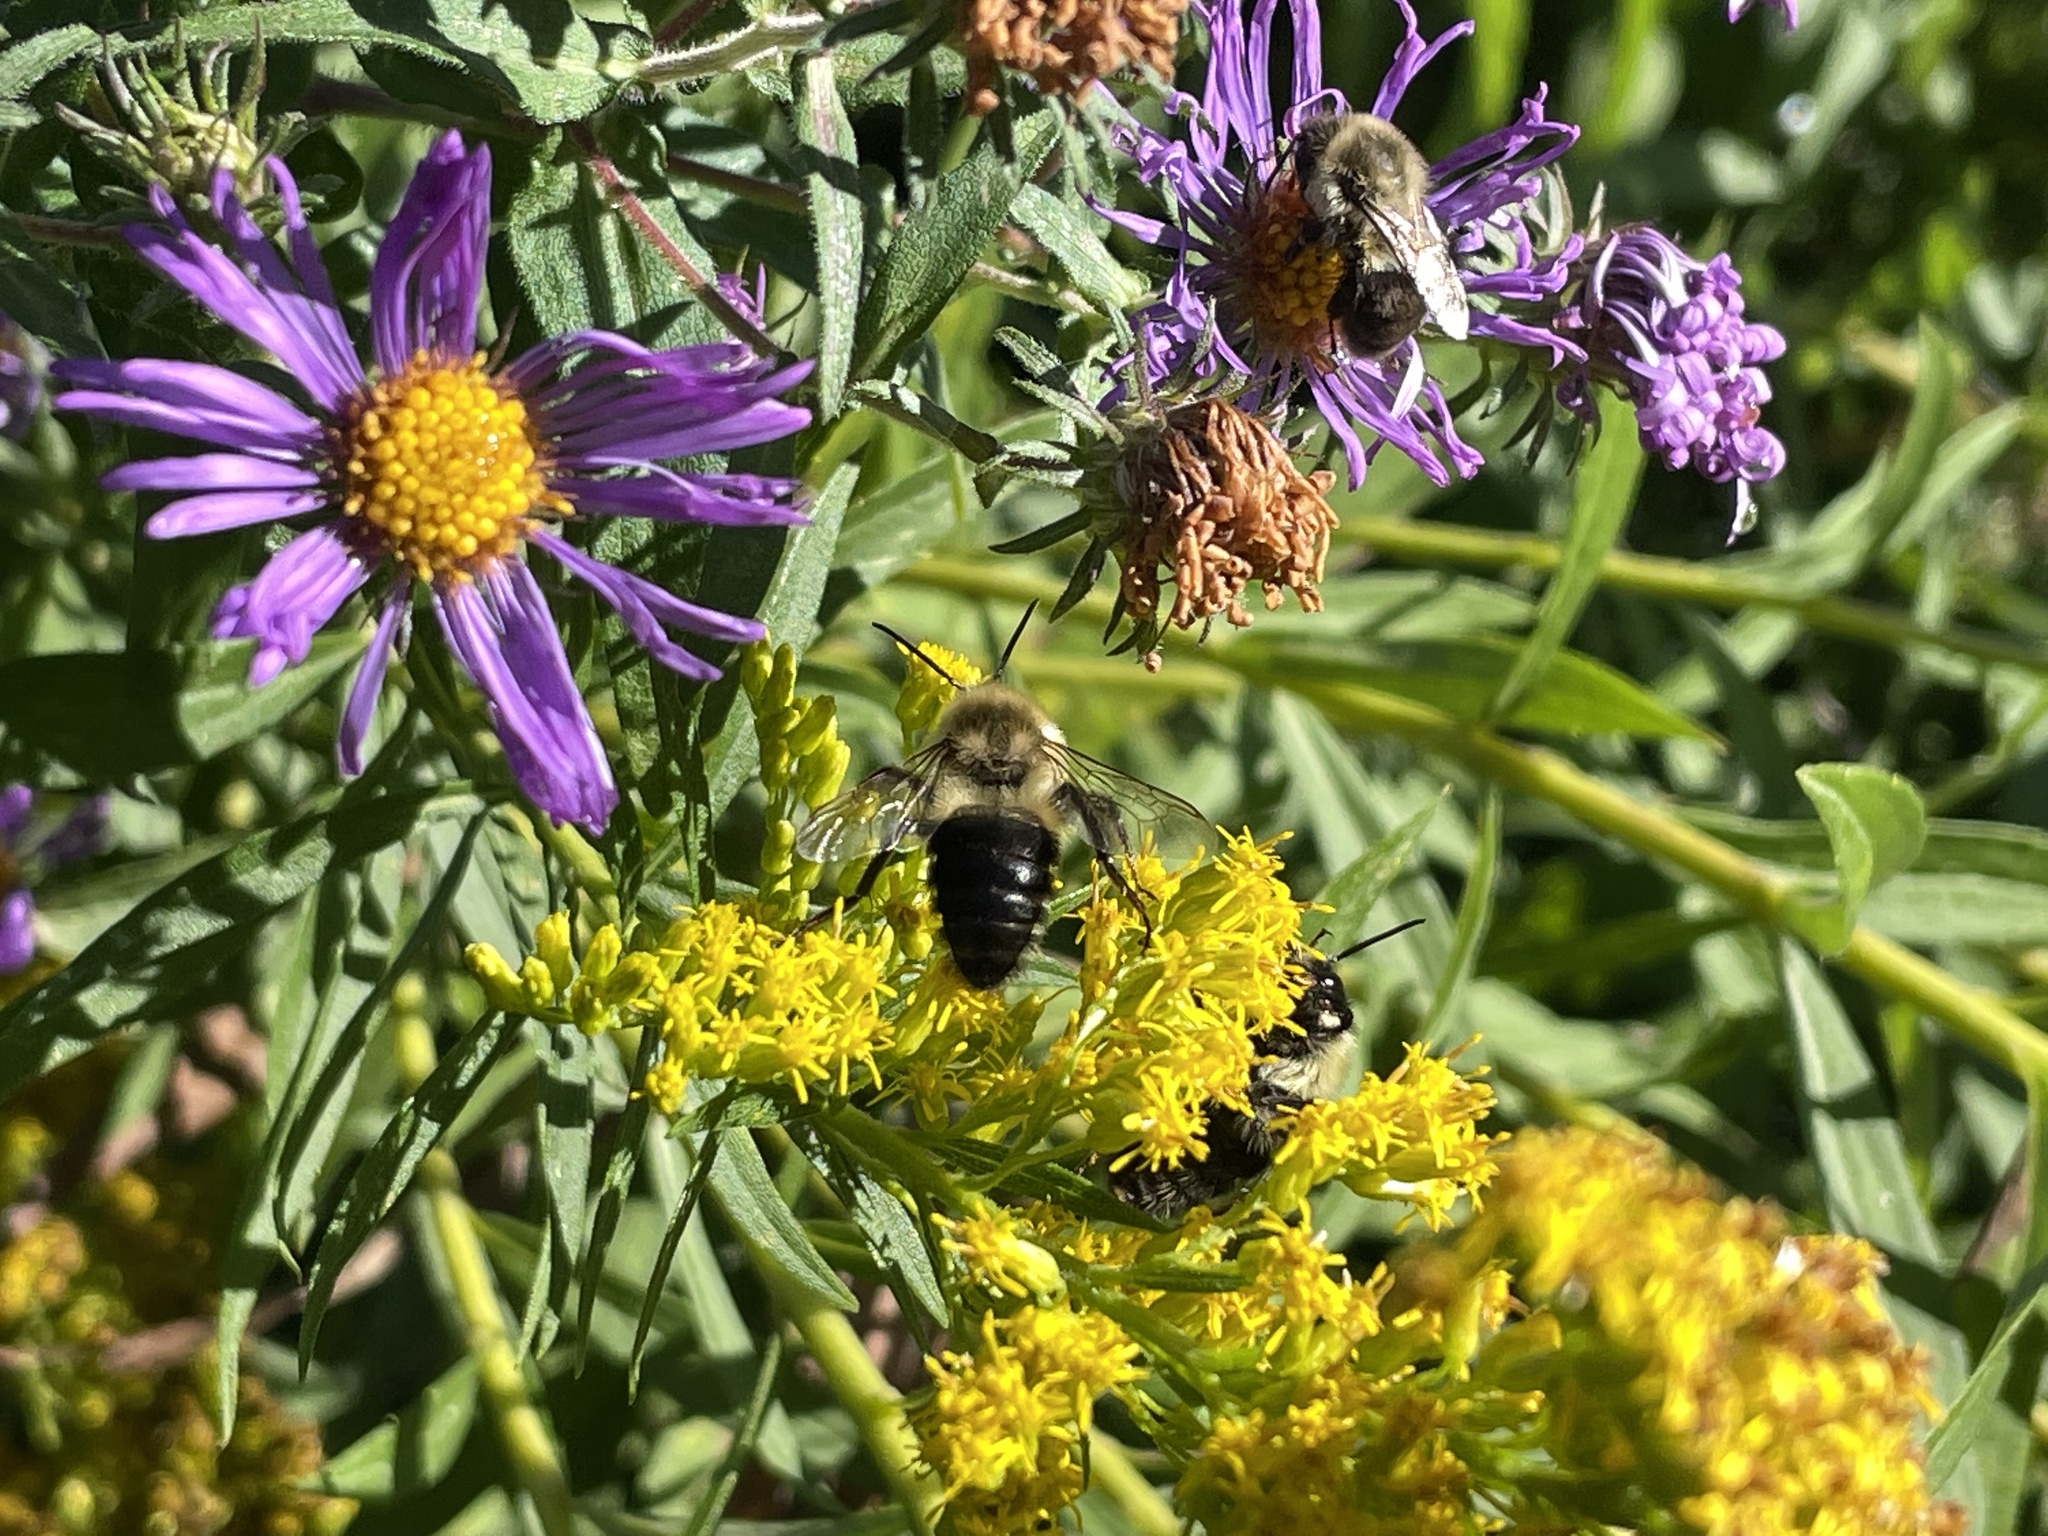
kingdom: Animalia
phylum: Arthropoda
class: Insecta
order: Hymenoptera
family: Apidae
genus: Bombus
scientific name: Bombus impatiens
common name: Common eastern bumble bee
